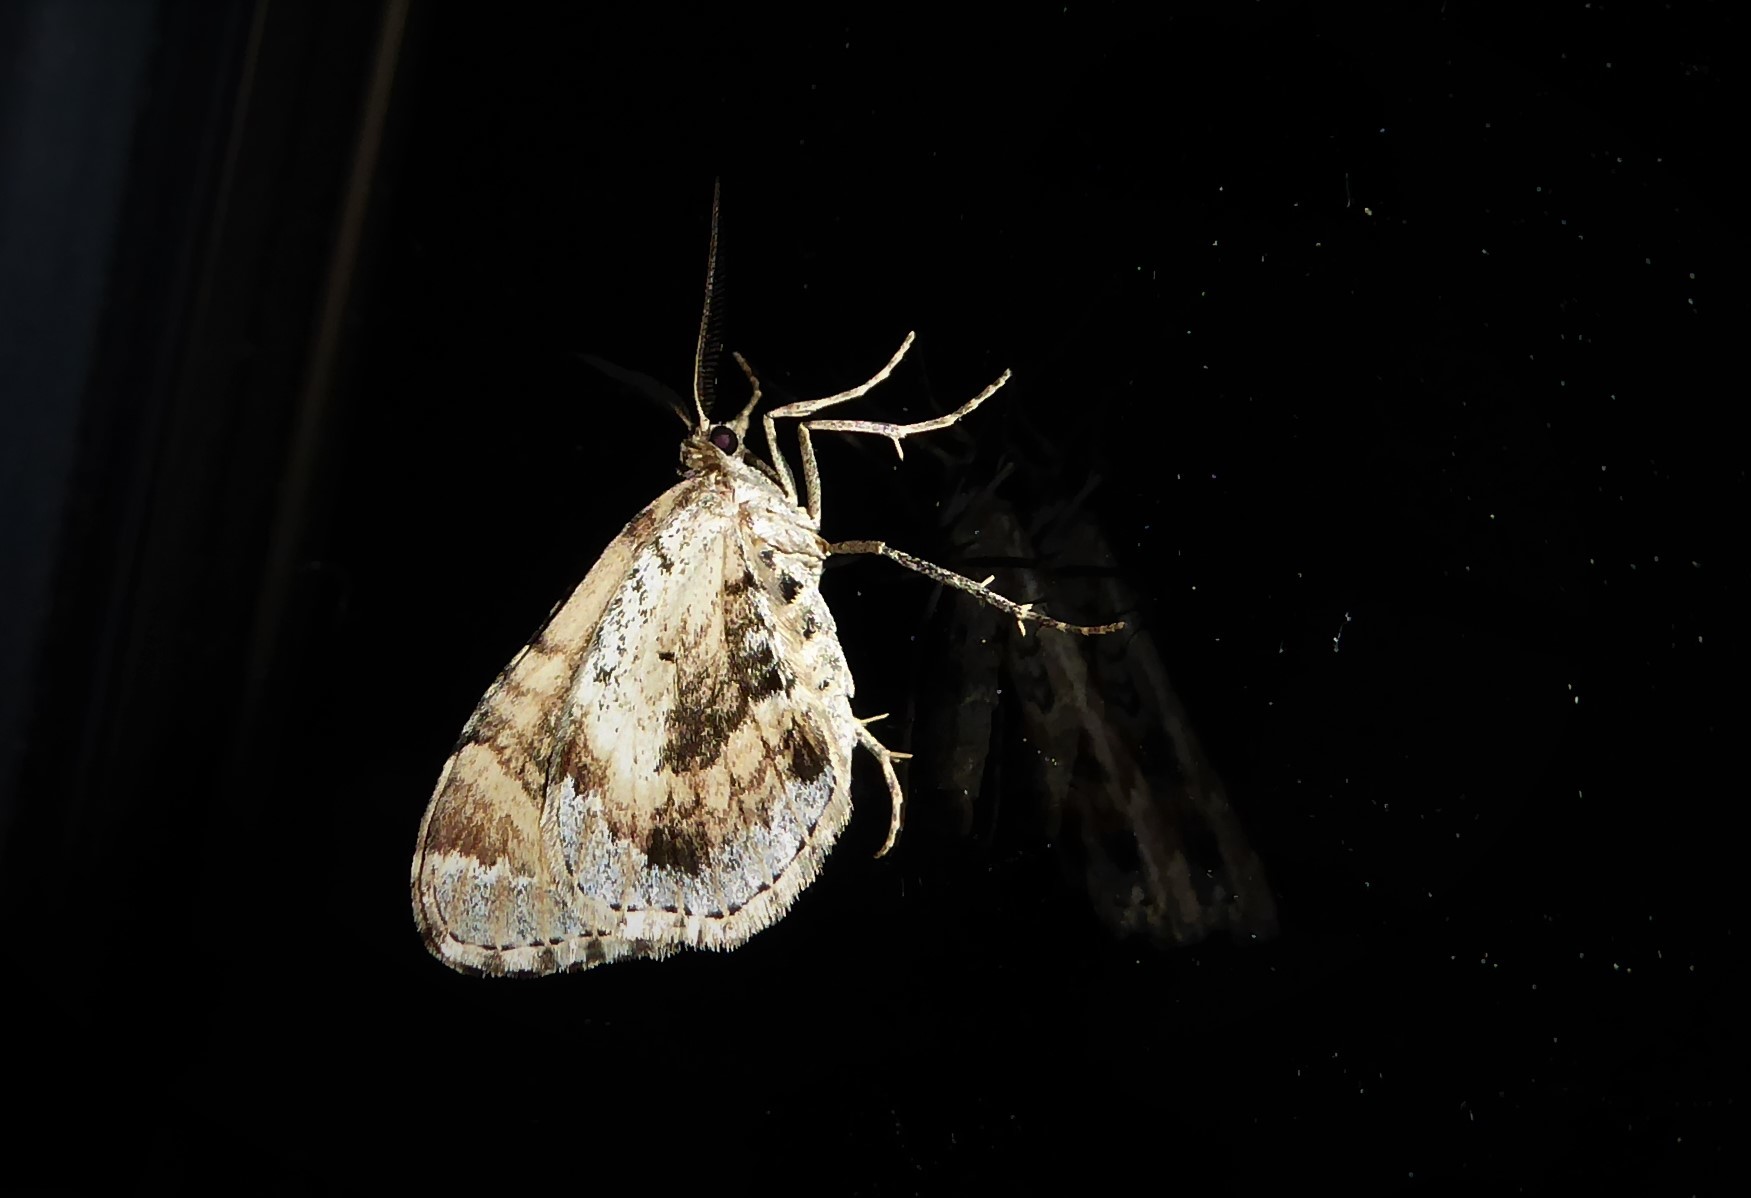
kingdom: Animalia
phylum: Arthropoda
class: Insecta
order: Lepidoptera
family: Geometridae
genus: Asaphodes
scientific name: Asaphodes aegrota
